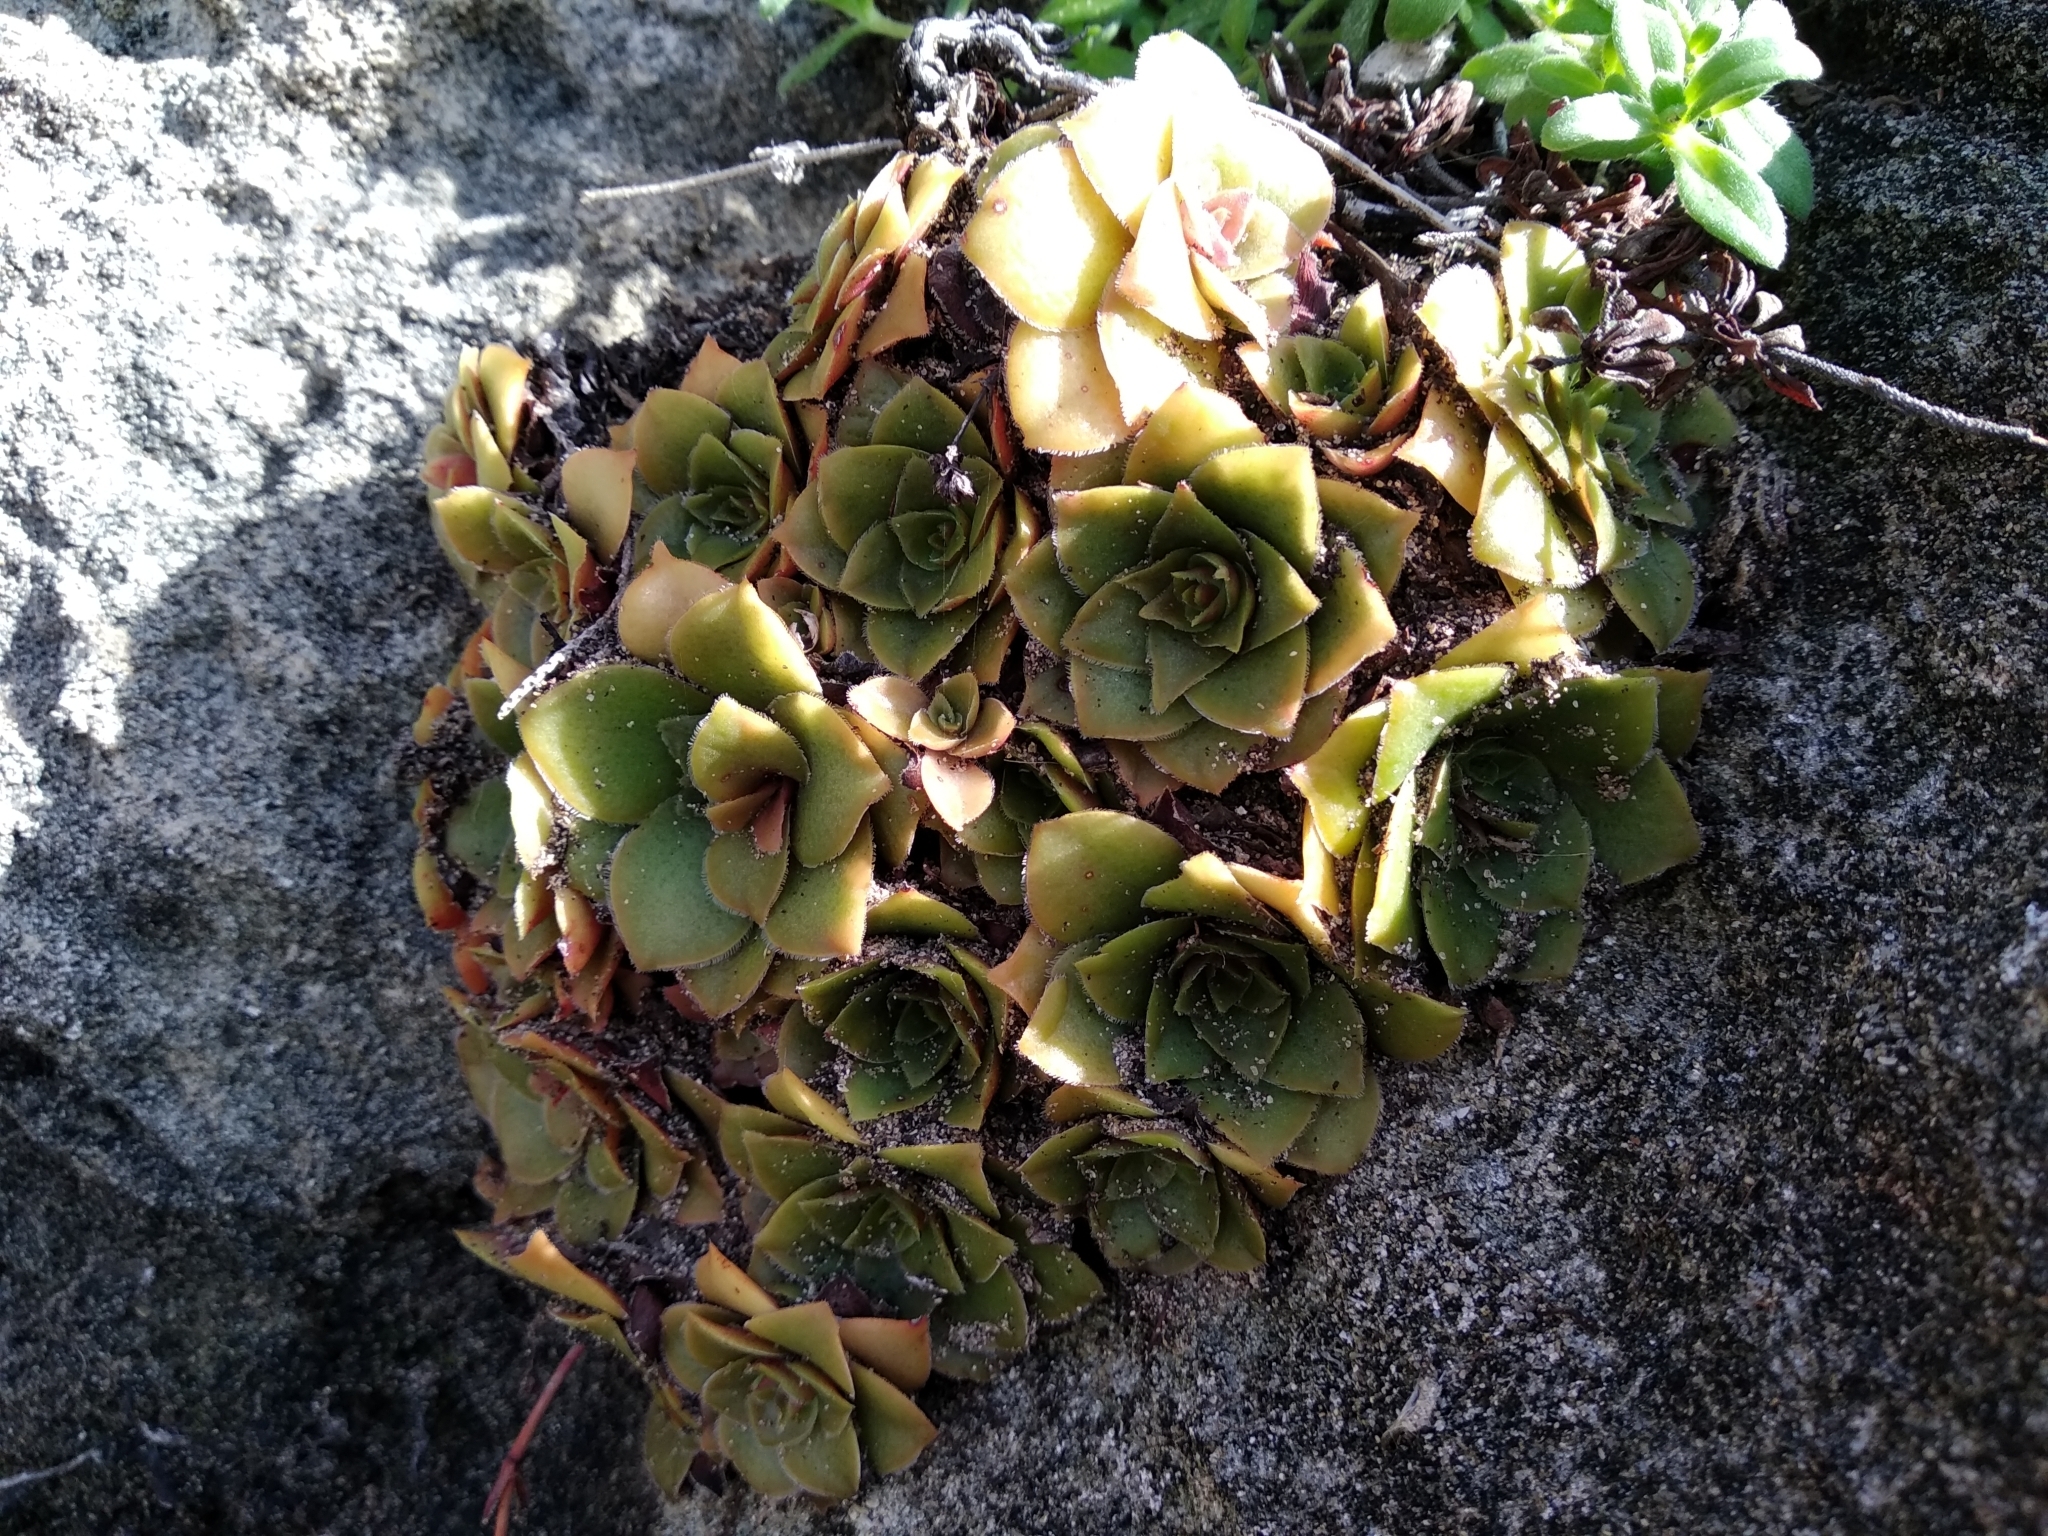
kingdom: Plantae
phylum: Tracheophyta
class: Magnoliopsida
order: Saxifragales
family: Crassulaceae
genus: Crassula
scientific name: Crassula orbicularis
